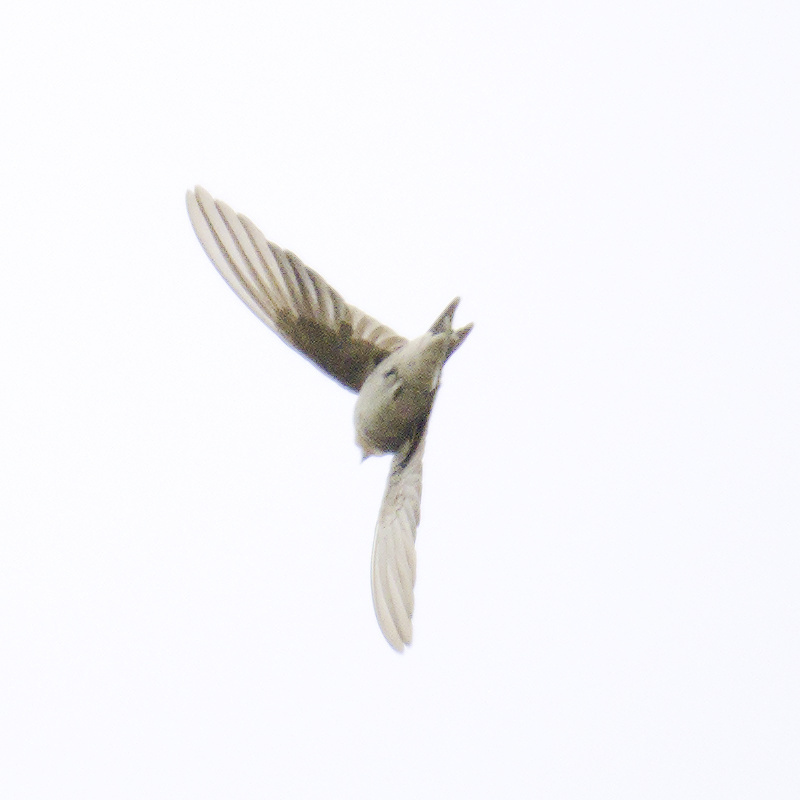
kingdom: Animalia
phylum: Chordata
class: Aves
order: Passeriformes
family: Hirundinidae
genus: Hirundo
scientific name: Hirundo neoxena
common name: Welcome swallow
